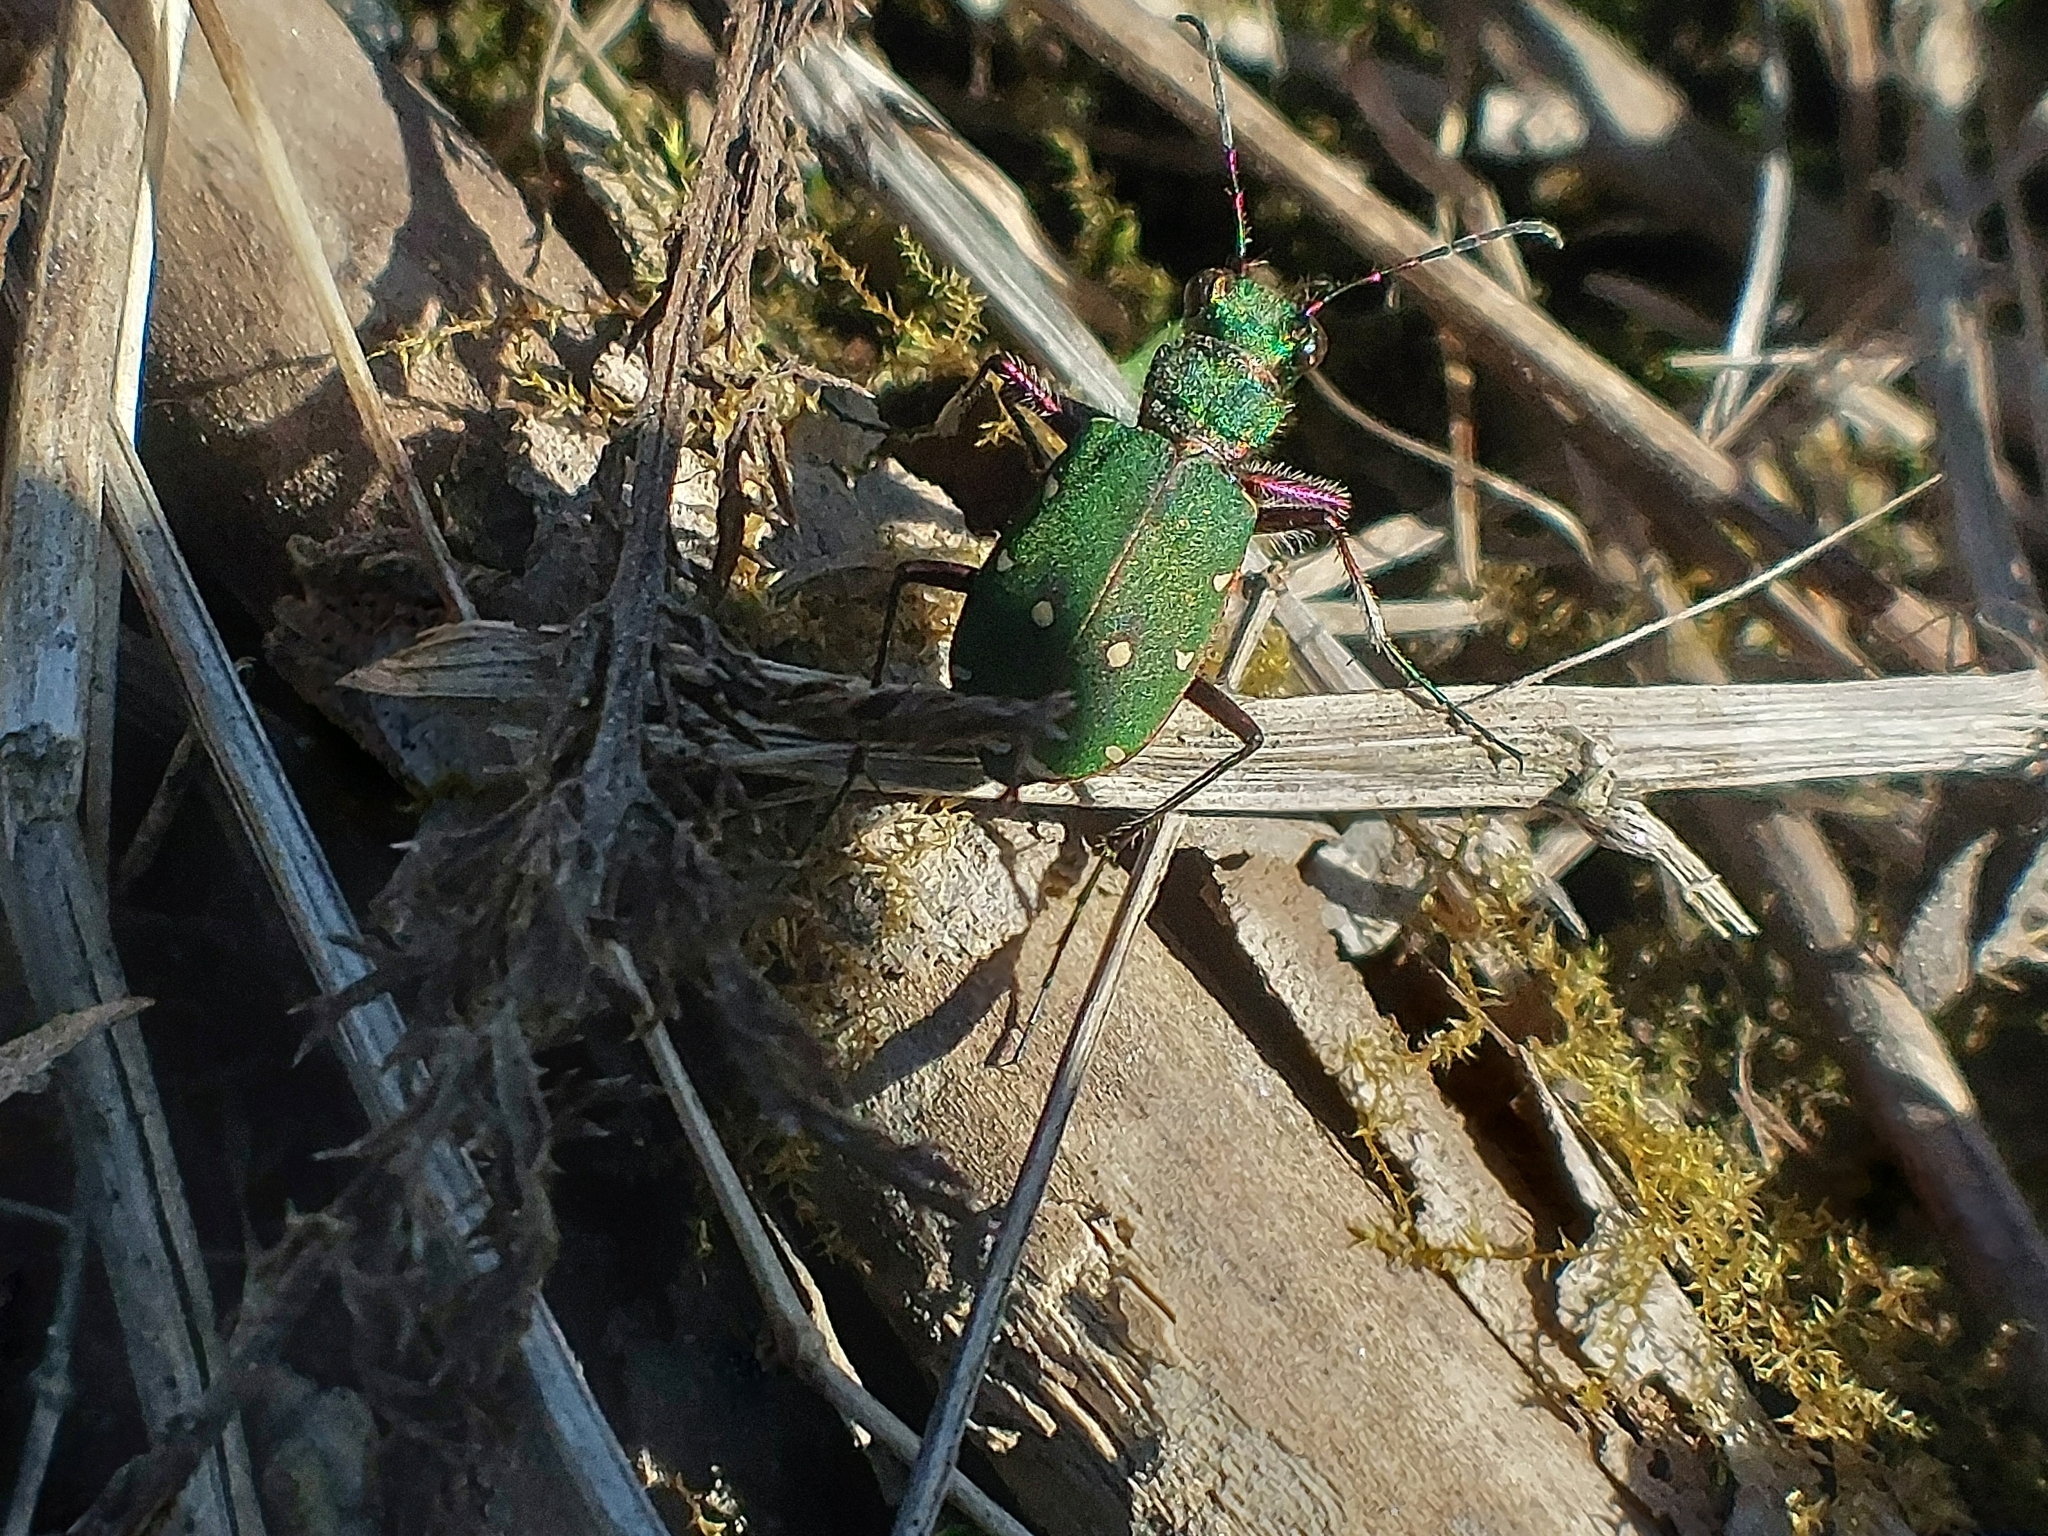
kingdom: Animalia
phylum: Arthropoda
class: Insecta
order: Coleoptera
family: Carabidae
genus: Cicindela
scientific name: Cicindela campestris
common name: Common tiger beetle
